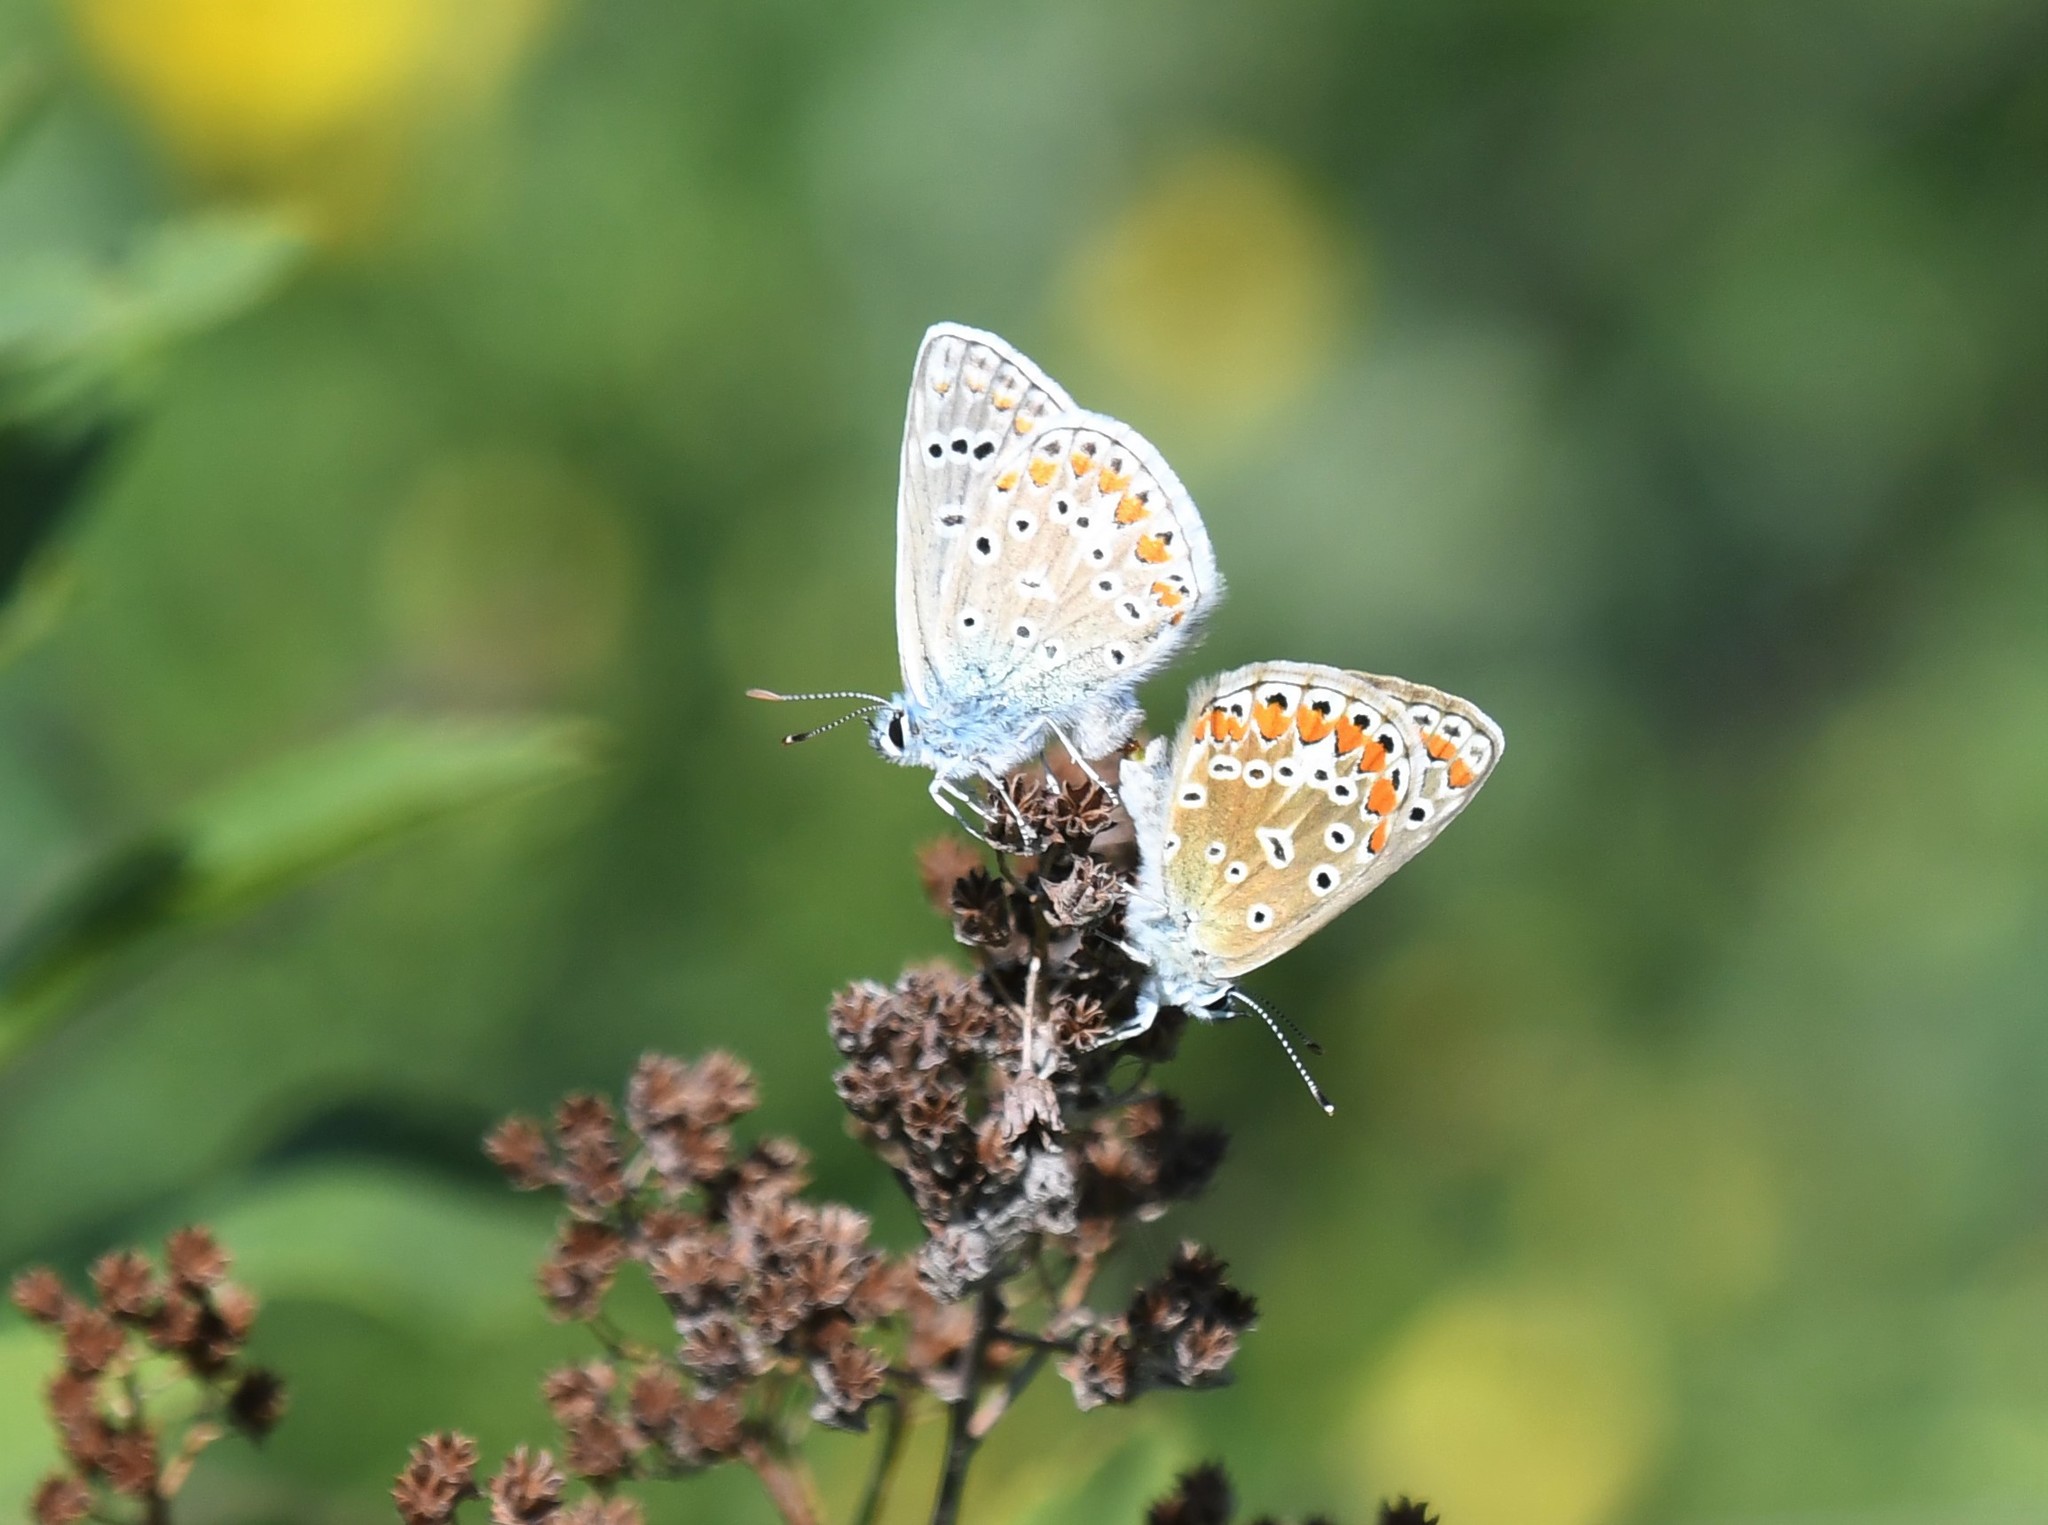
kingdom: Animalia
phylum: Arthropoda
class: Insecta
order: Lepidoptera
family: Lycaenidae
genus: Polyommatus
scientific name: Polyommatus icarus
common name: Common blue
